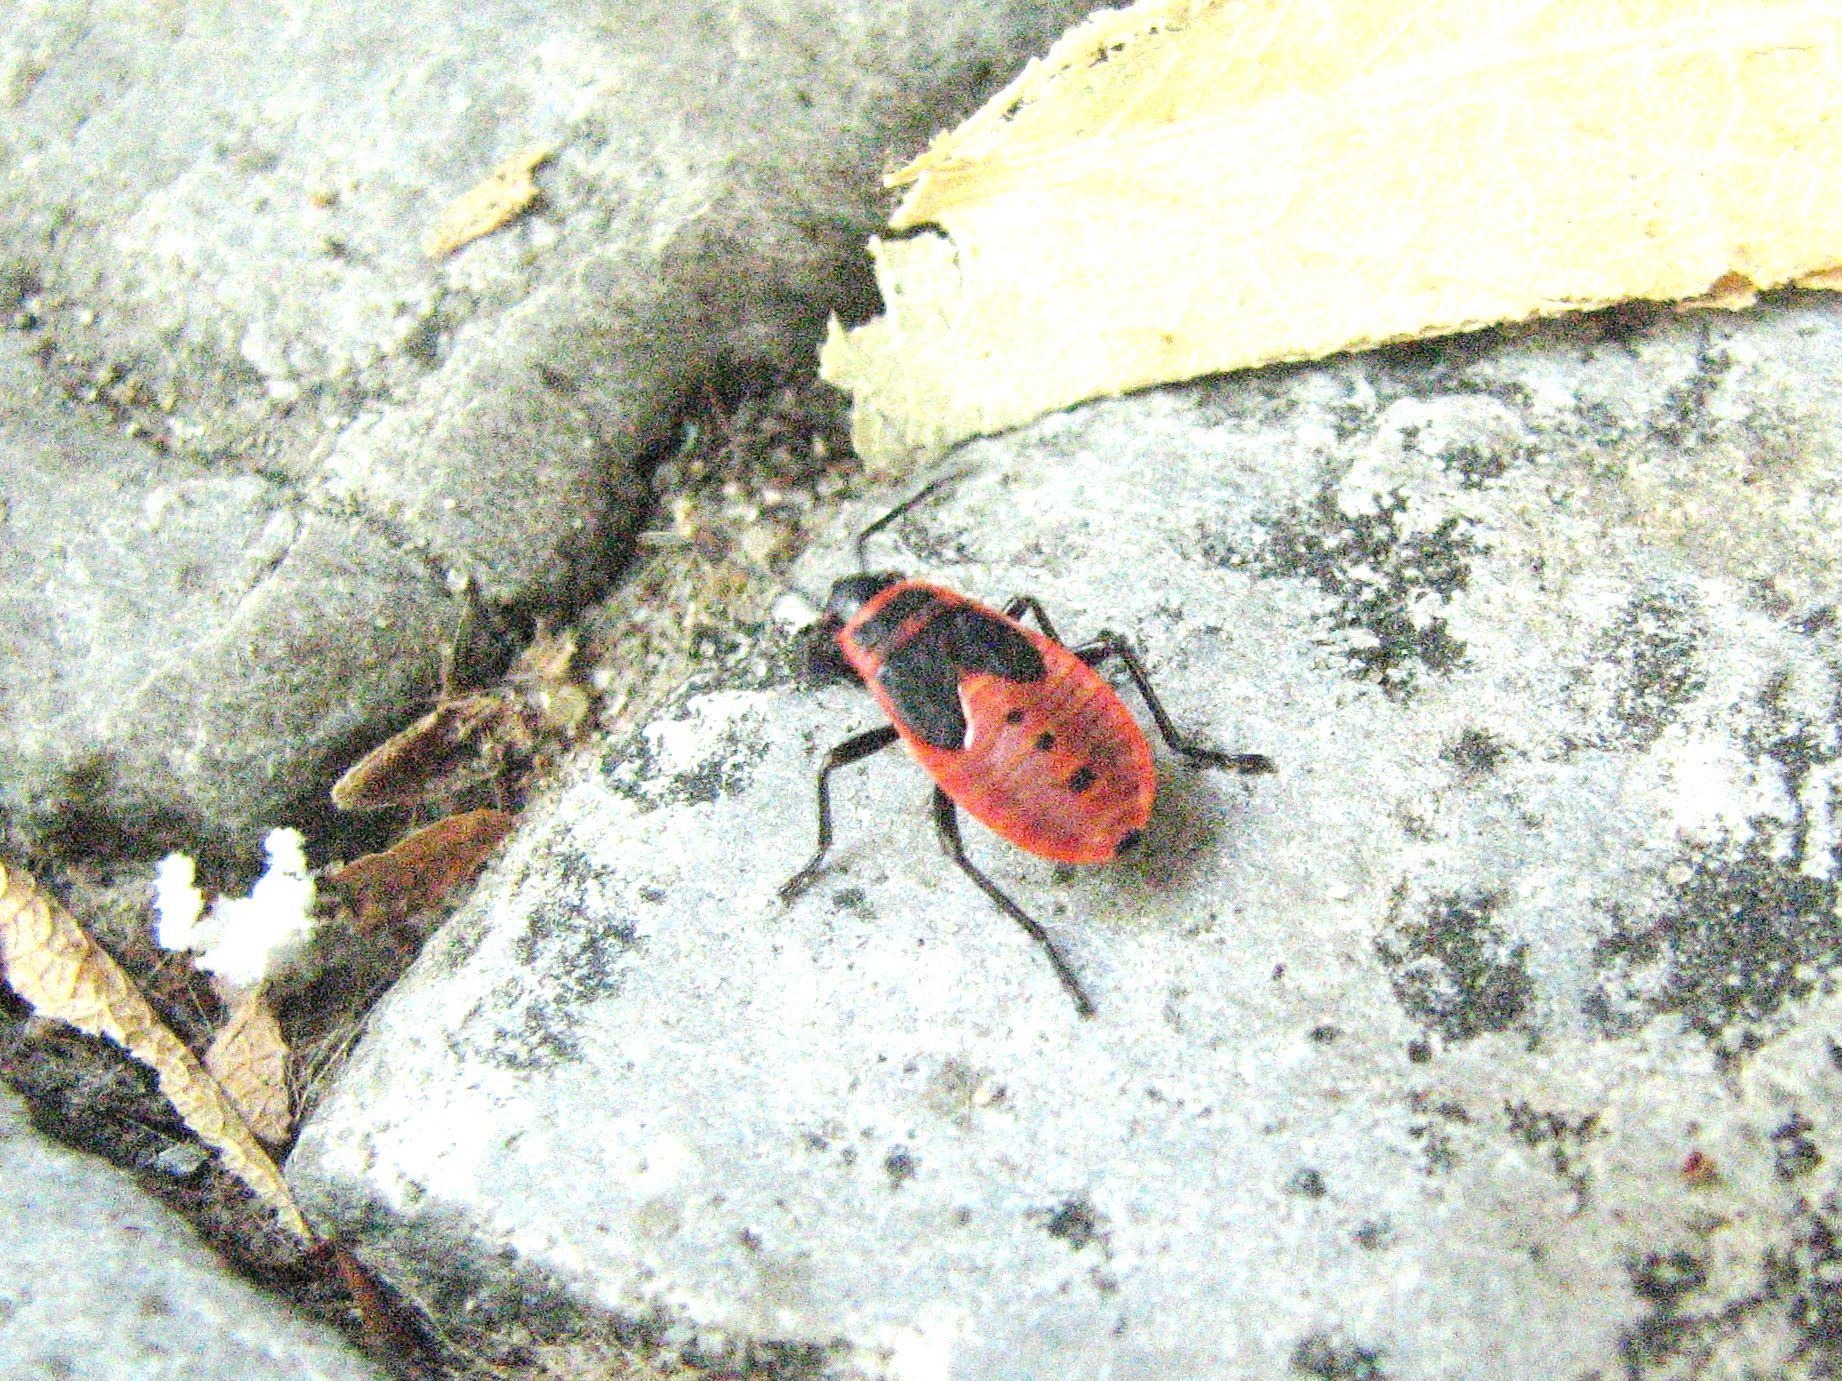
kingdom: Animalia
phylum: Arthropoda
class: Insecta
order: Hemiptera
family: Pyrrhocoridae
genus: Pyrrhocoris
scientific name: Pyrrhocoris apterus
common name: Firebug
